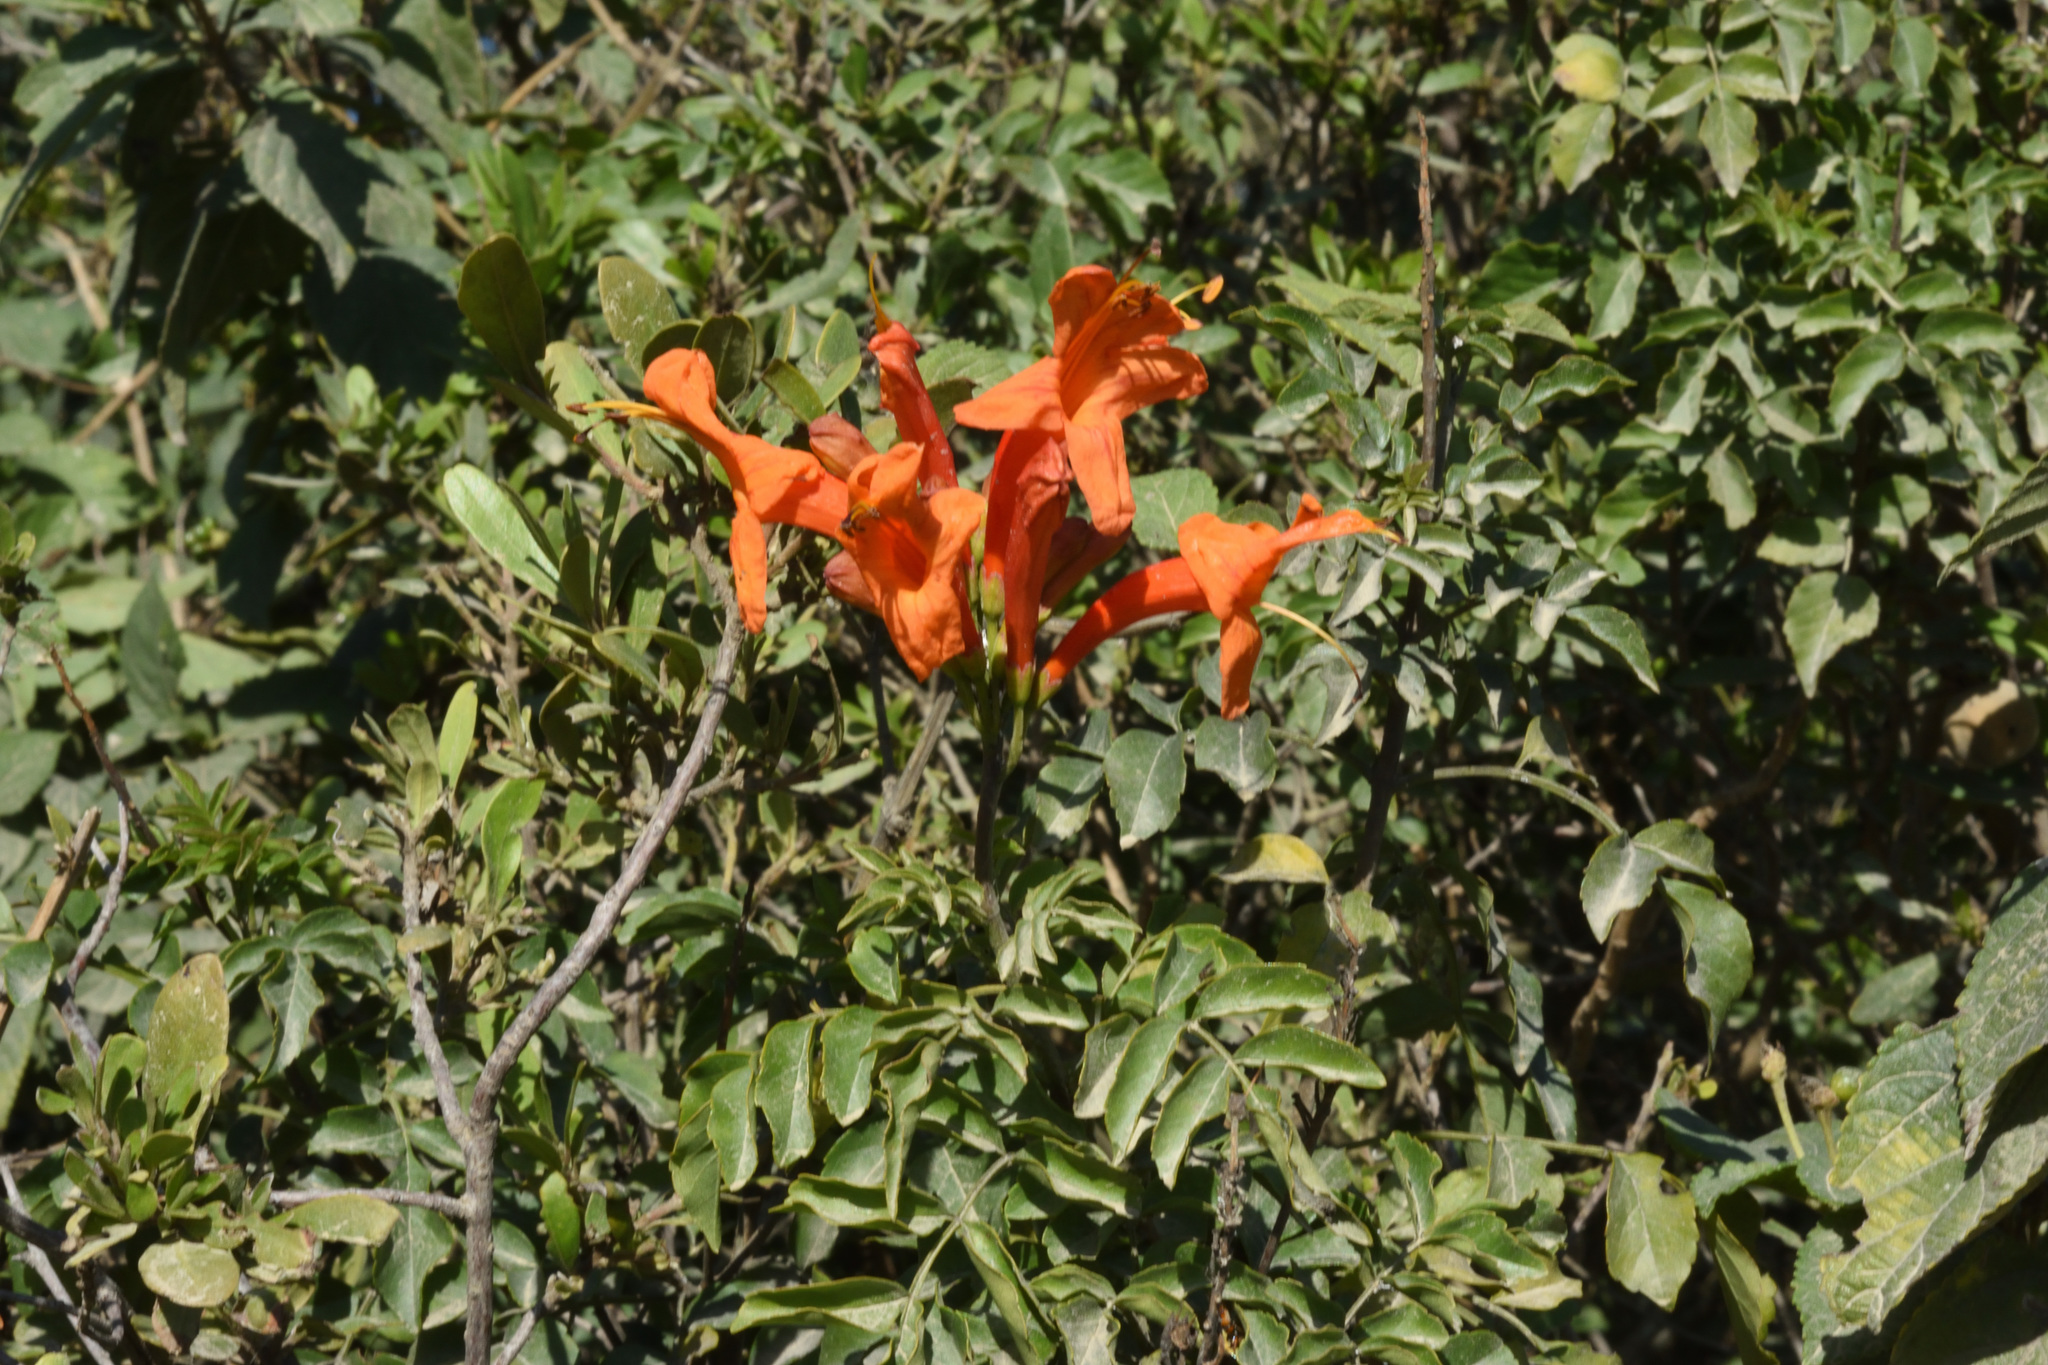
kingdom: Plantae
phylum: Tracheophyta
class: Magnoliopsida
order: Lamiales
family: Bignoniaceae
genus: Tecomaria
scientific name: Tecomaria capensis
